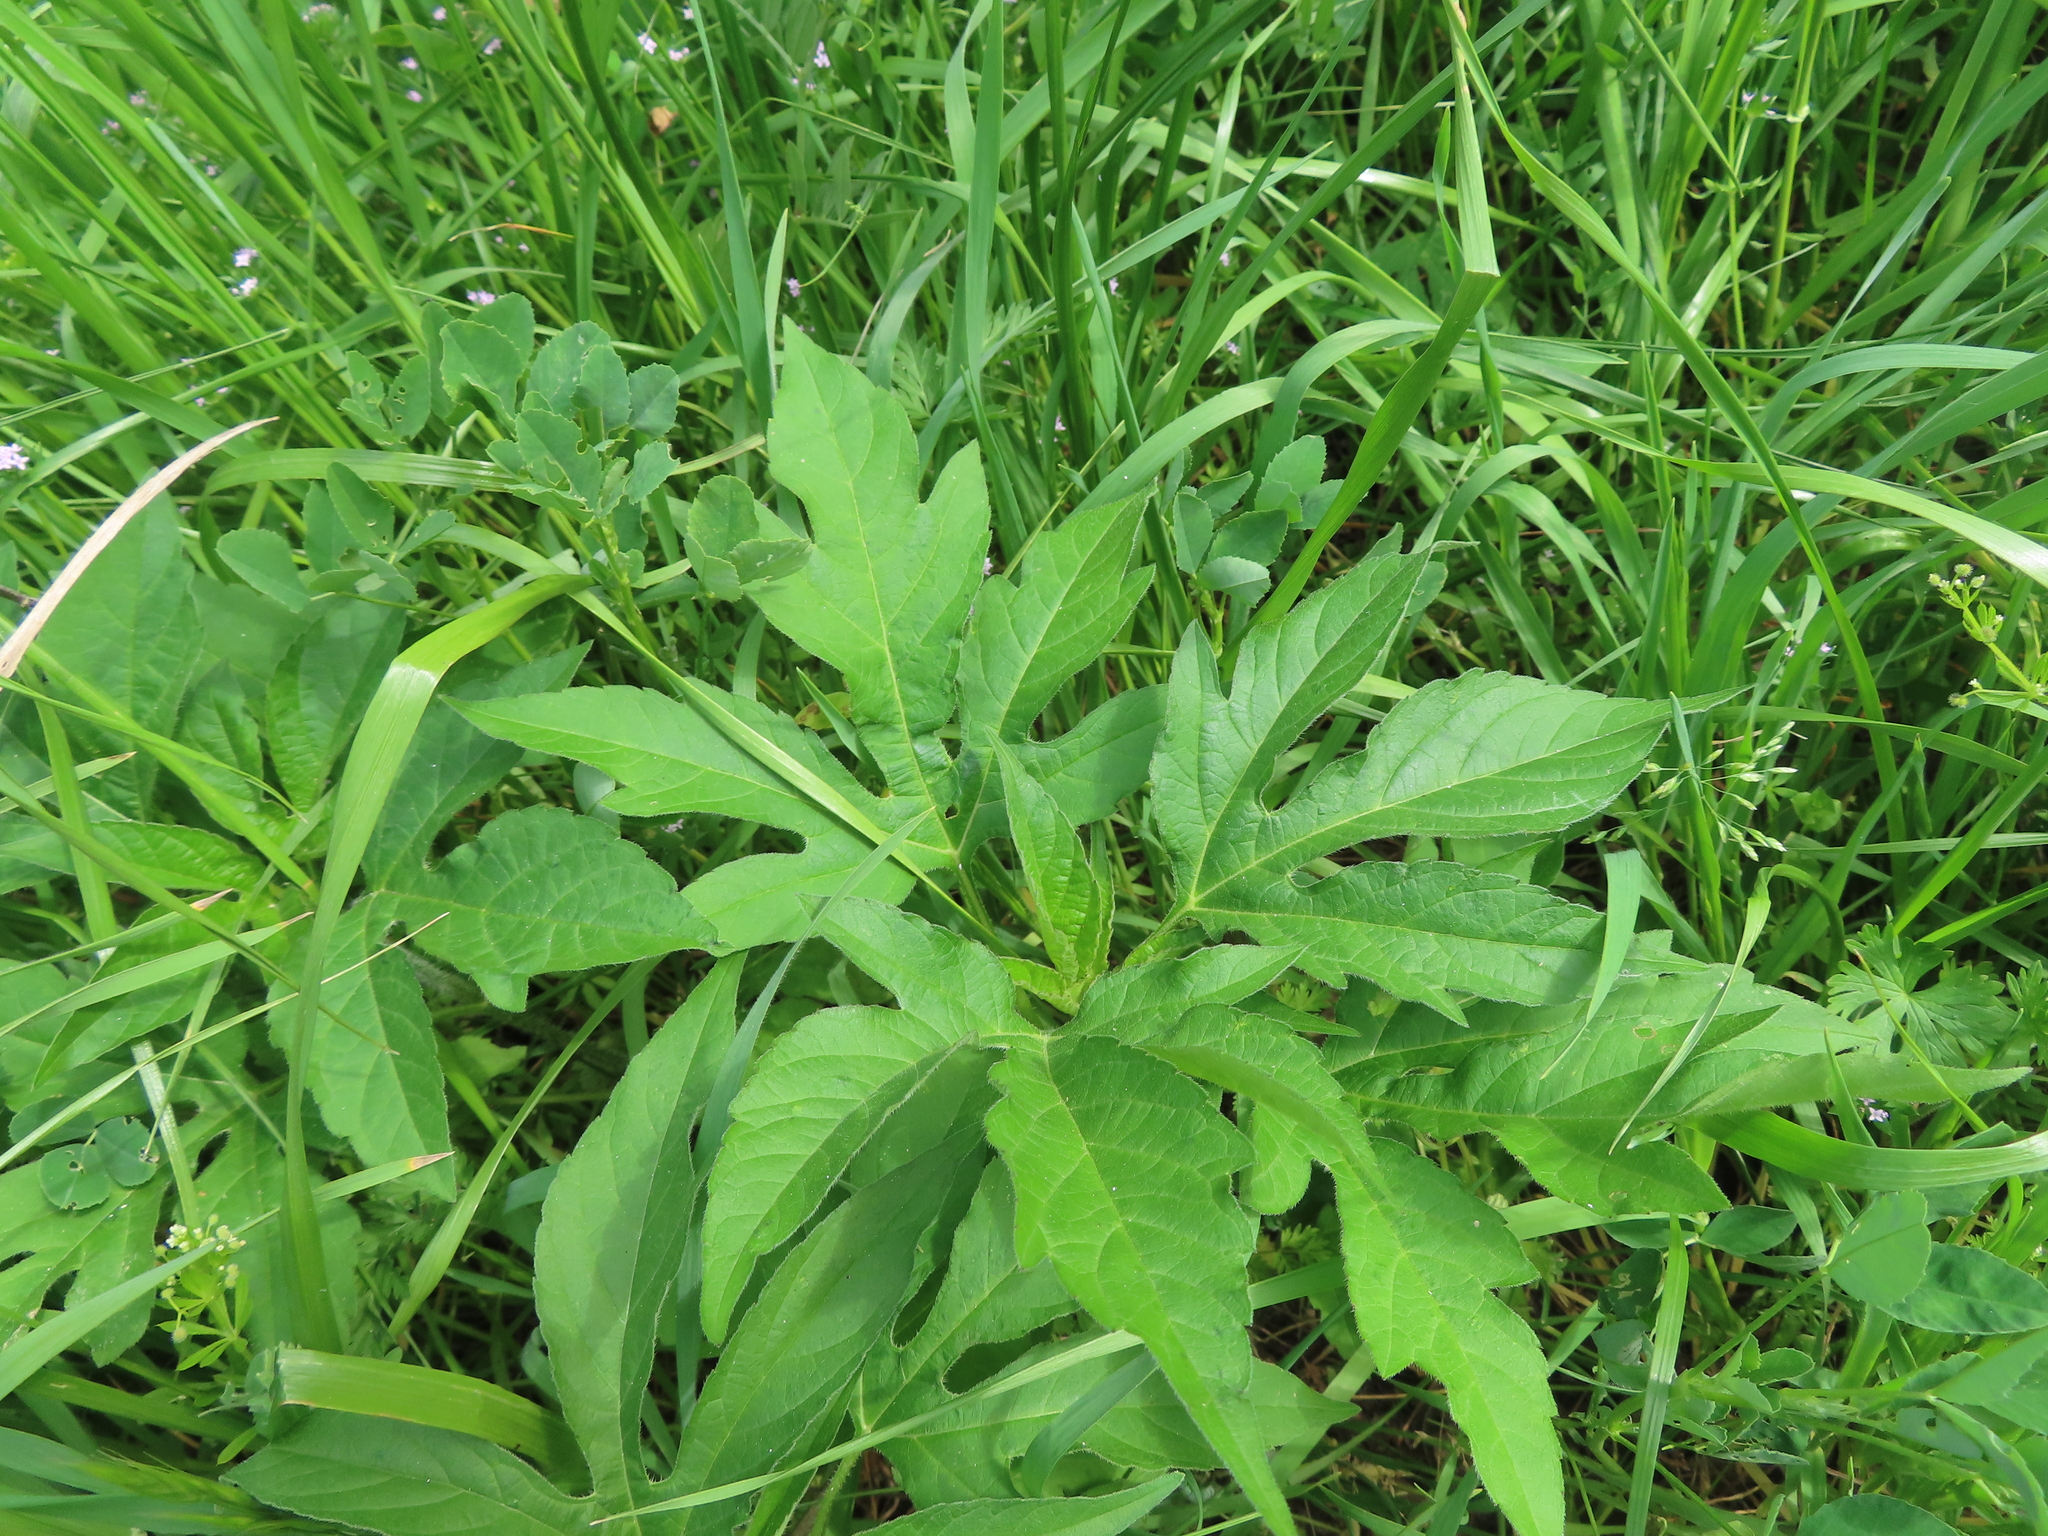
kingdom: Plantae
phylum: Tracheophyta
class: Magnoliopsida
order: Asterales
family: Asteraceae
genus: Ambrosia
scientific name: Ambrosia trifida
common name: Giant ragweed
